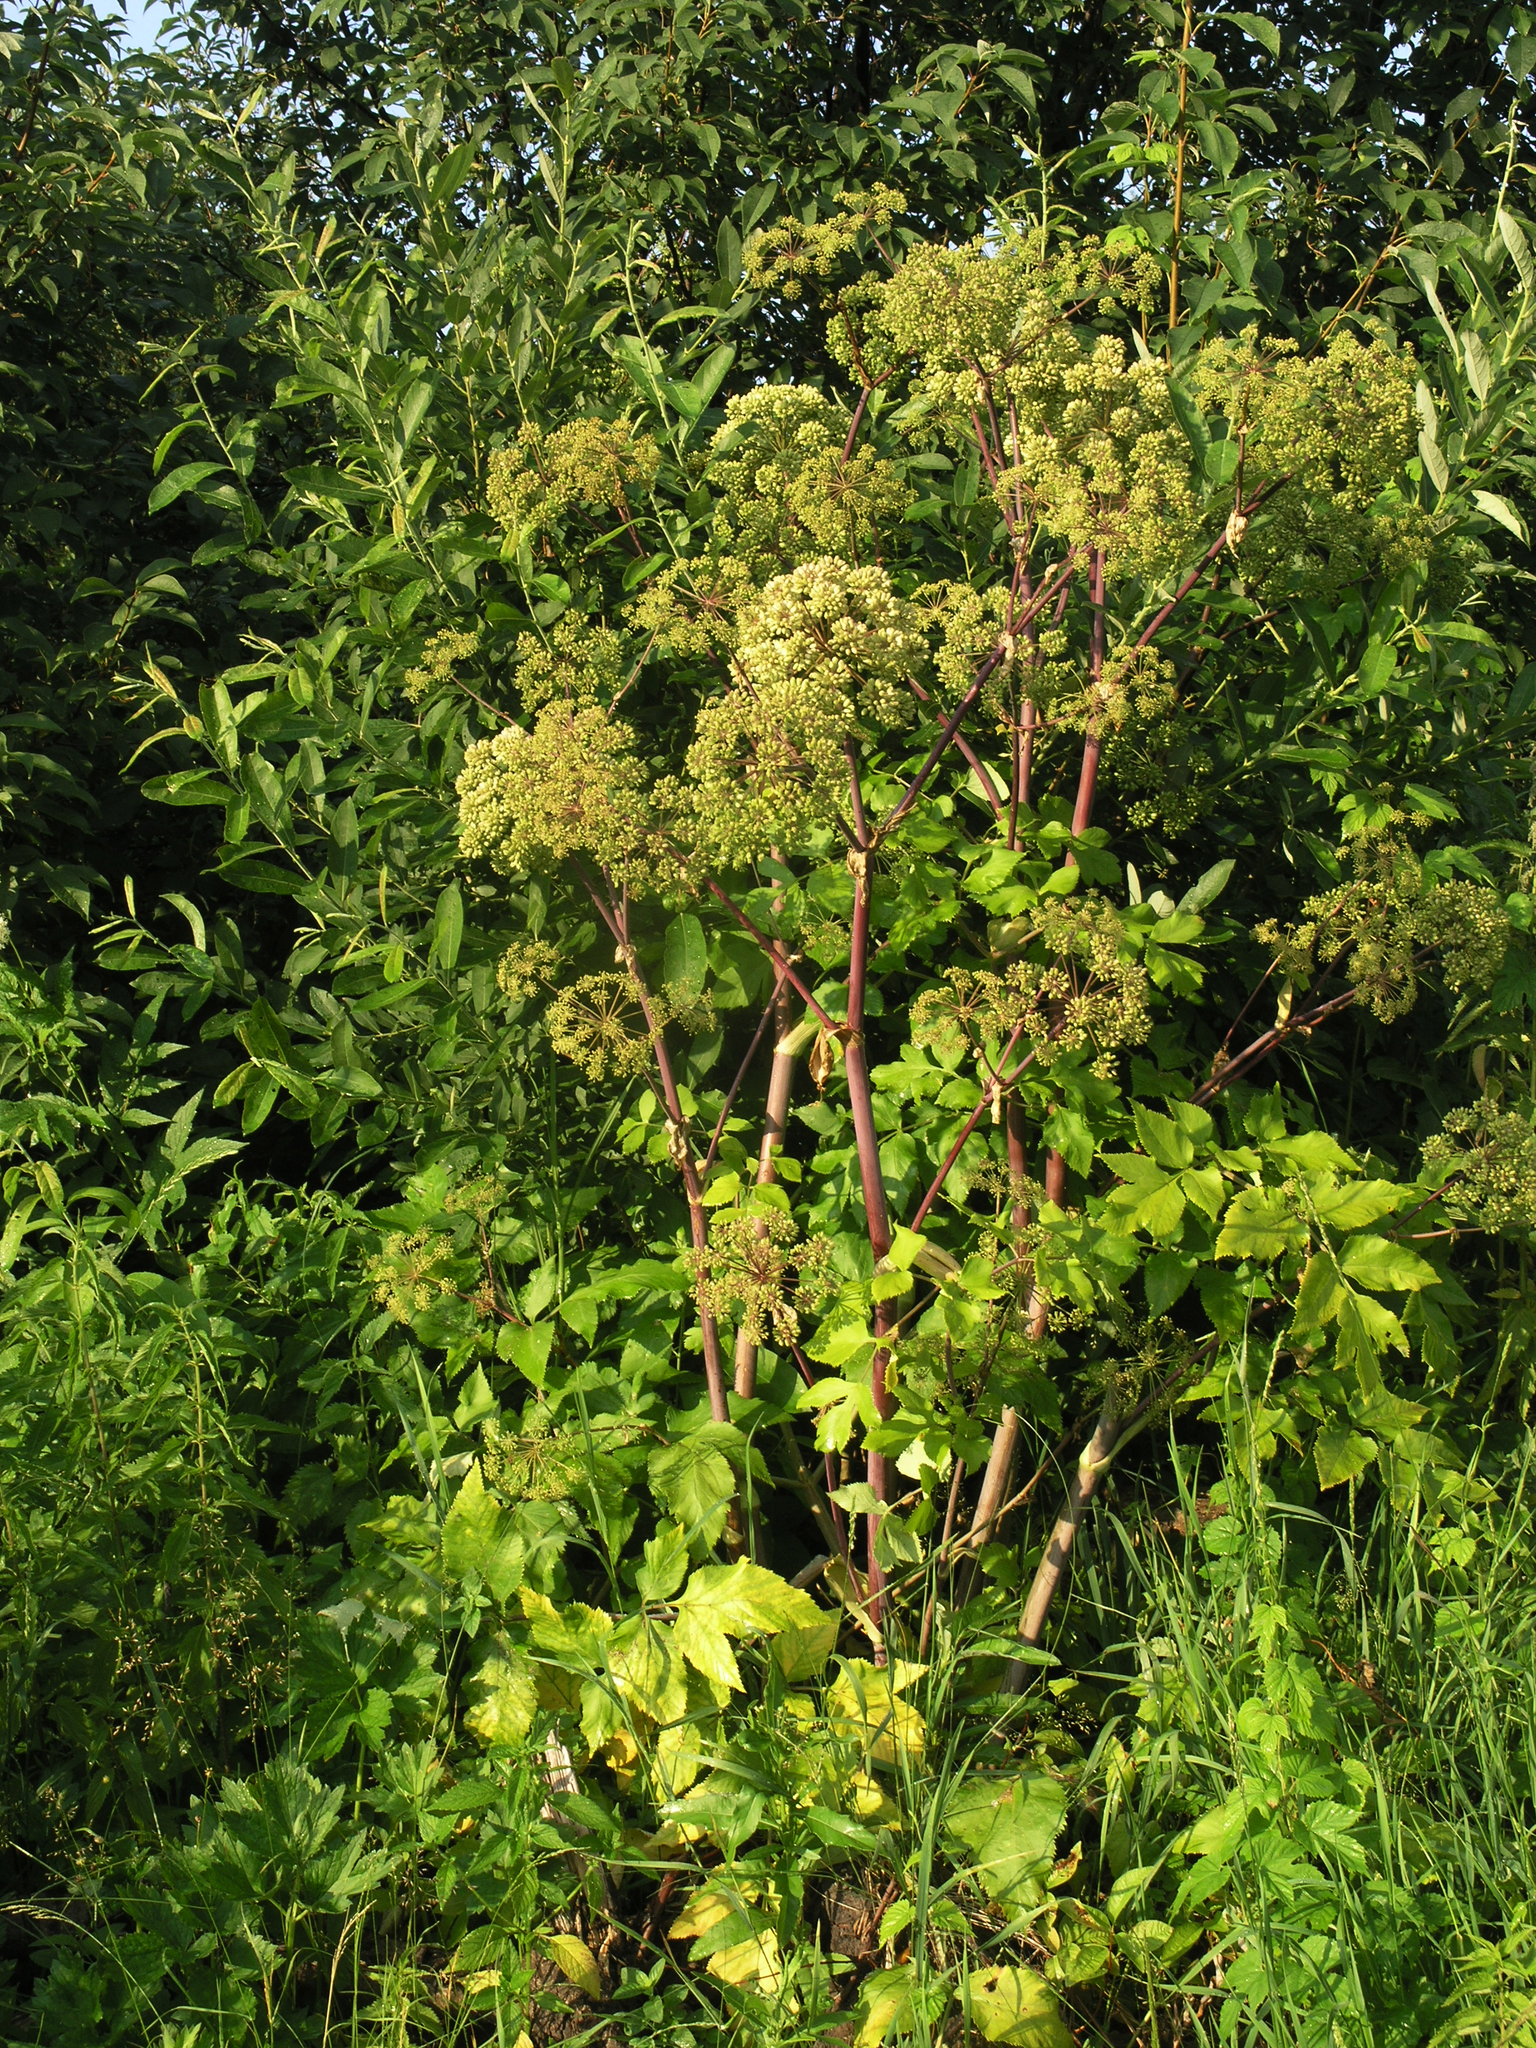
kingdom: Plantae
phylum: Tracheophyta
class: Magnoliopsida
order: Apiales
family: Apiaceae
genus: Angelica
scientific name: Angelica archangelica
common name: Garden angelica
